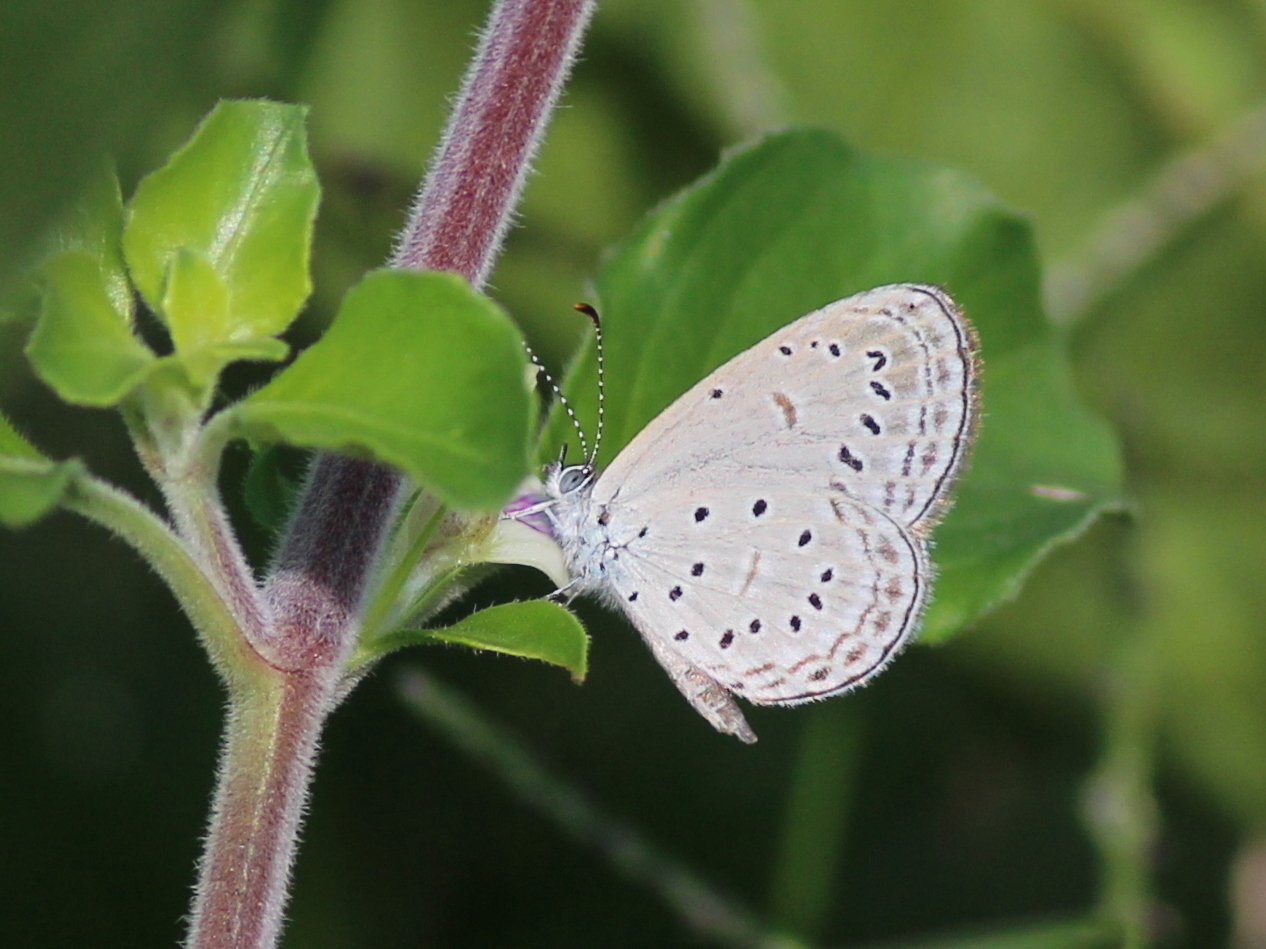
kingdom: Animalia
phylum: Arthropoda
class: Insecta
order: Lepidoptera
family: Lycaenidae
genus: Zizula
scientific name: Zizula hylax
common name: Gaika blue
